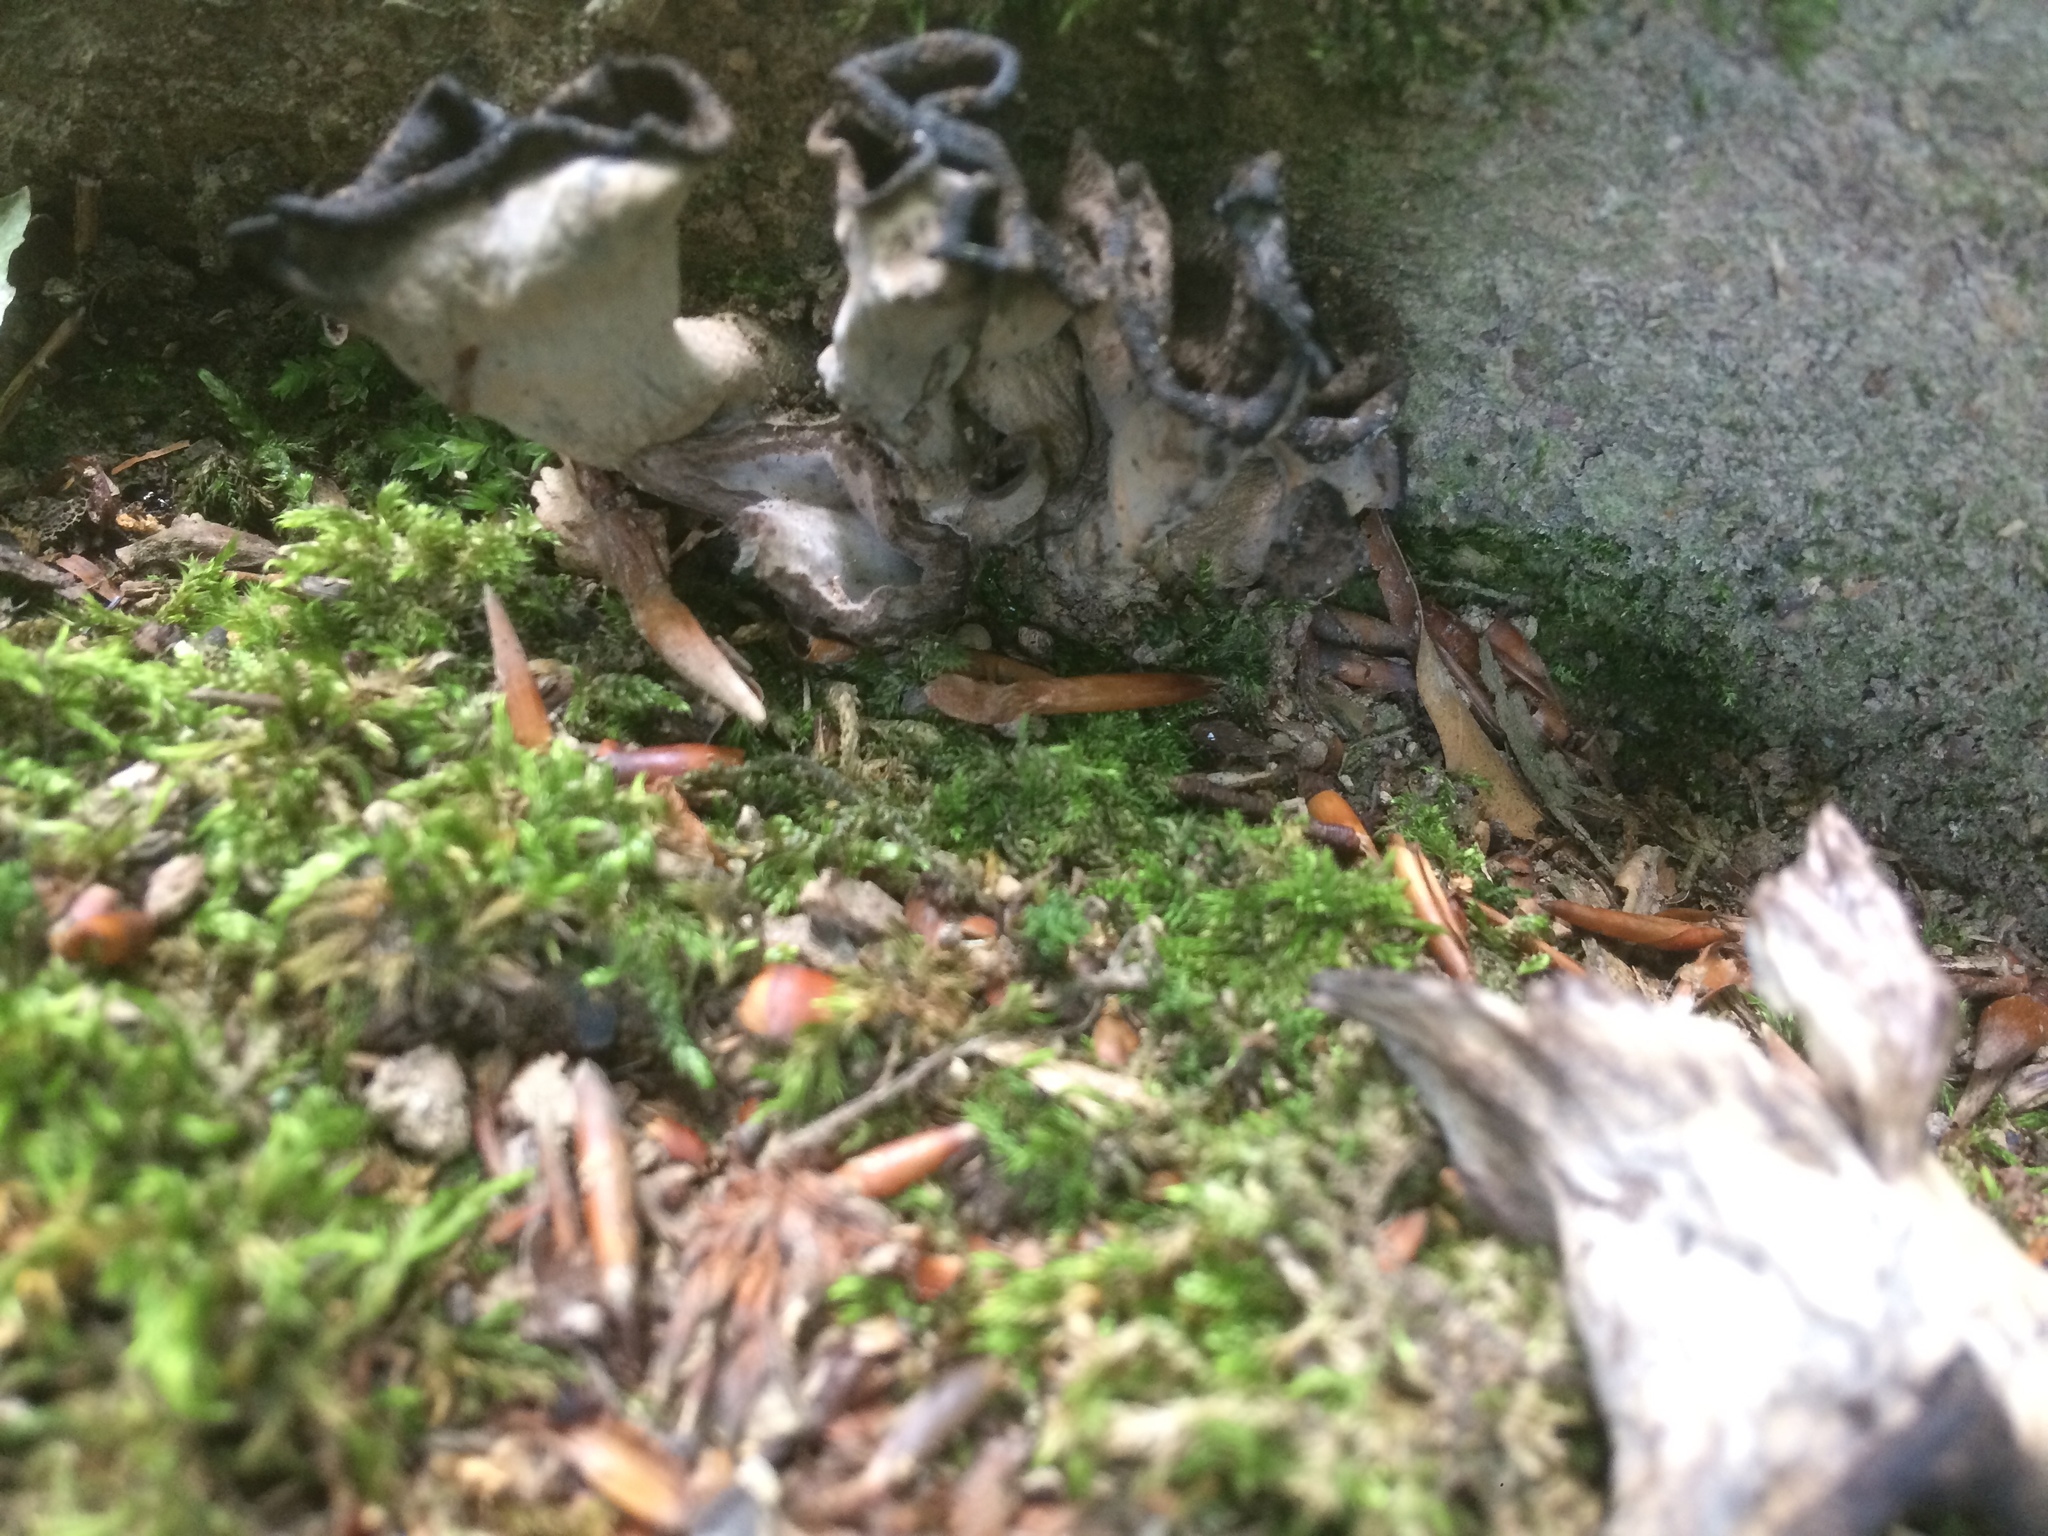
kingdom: Fungi
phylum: Basidiomycota
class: Agaricomycetes
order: Cantharellales
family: Hydnaceae
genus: Craterellus
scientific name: Craterellus cornucopioides
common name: Horn of plenty
